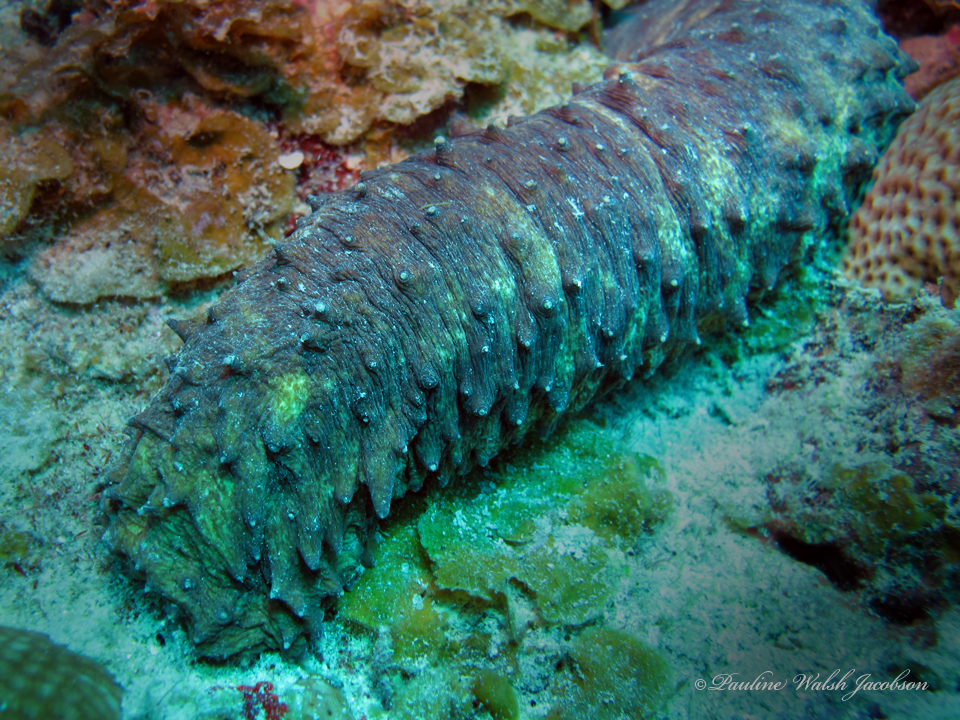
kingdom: Animalia
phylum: Echinodermata
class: Holothuroidea
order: Holothuriida
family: Holothuriidae
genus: Holothuria
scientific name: Holothuria thomasi
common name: Tiger tail sea cocumber
